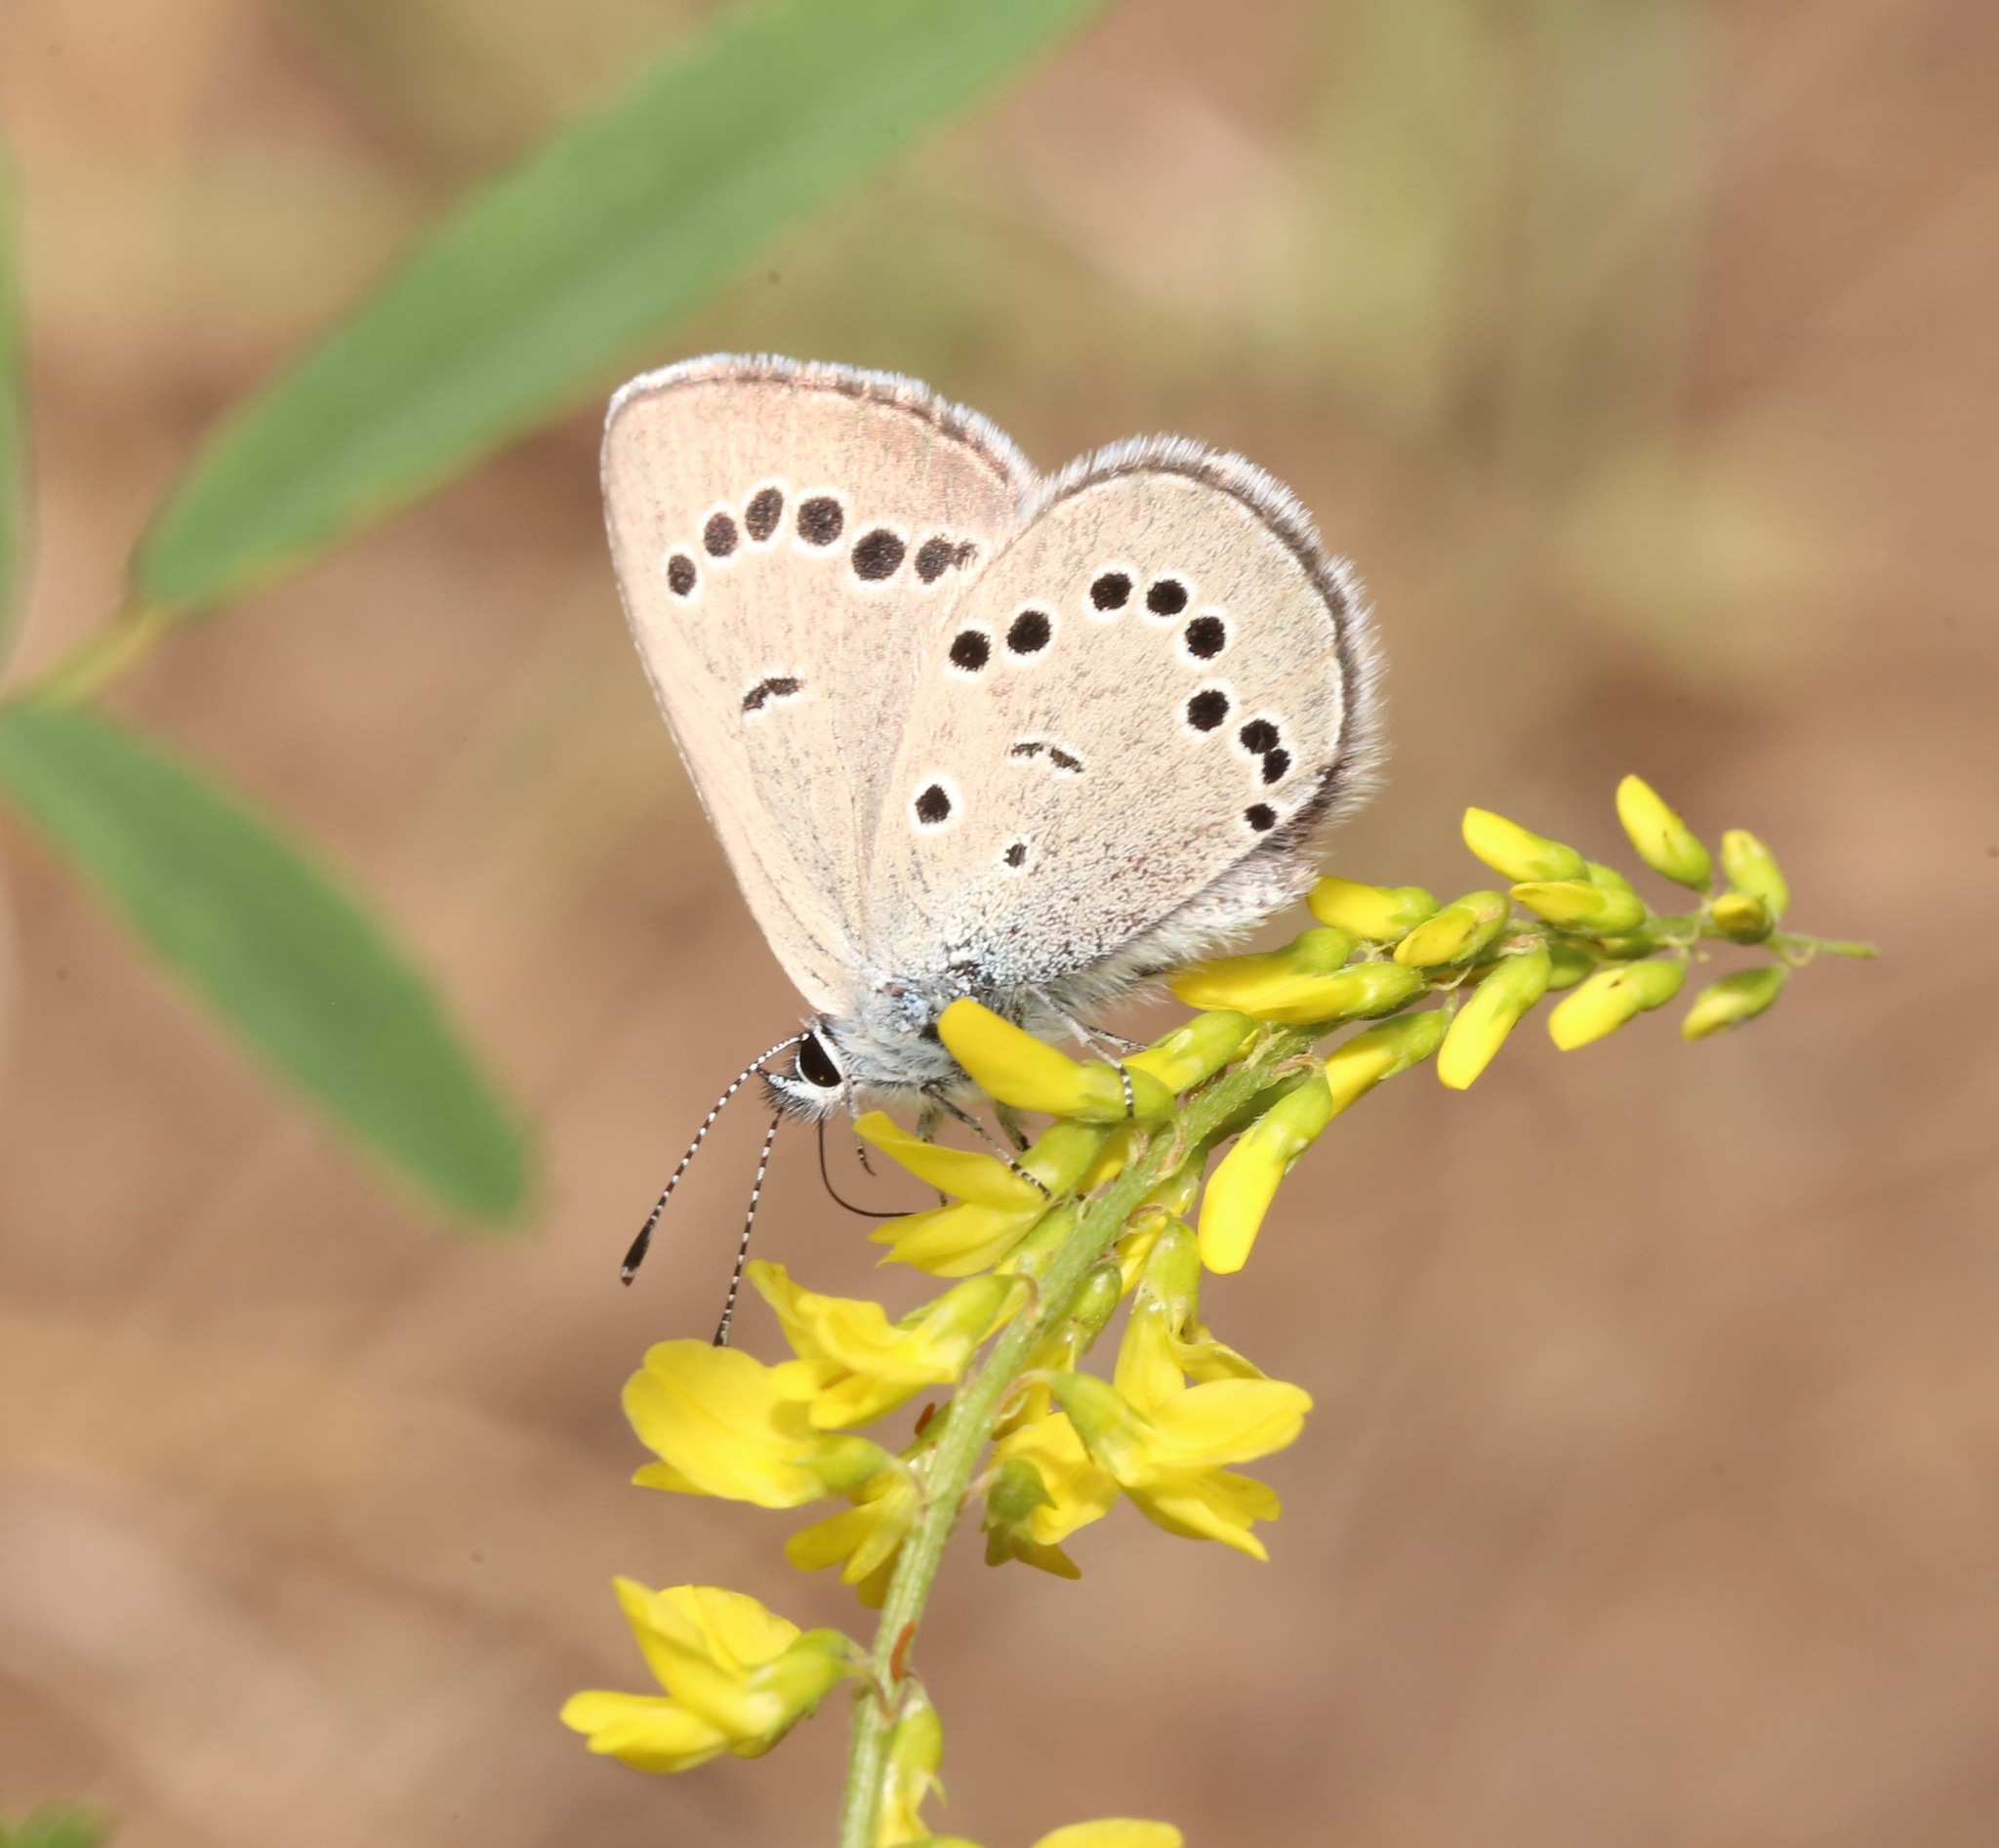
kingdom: Animalia
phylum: Arthropoda
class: Insecta
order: Lepidoptera
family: Lycaenidae
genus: Glaucopsyche
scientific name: Glaucopsyche lygdamus
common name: Silvery blue
